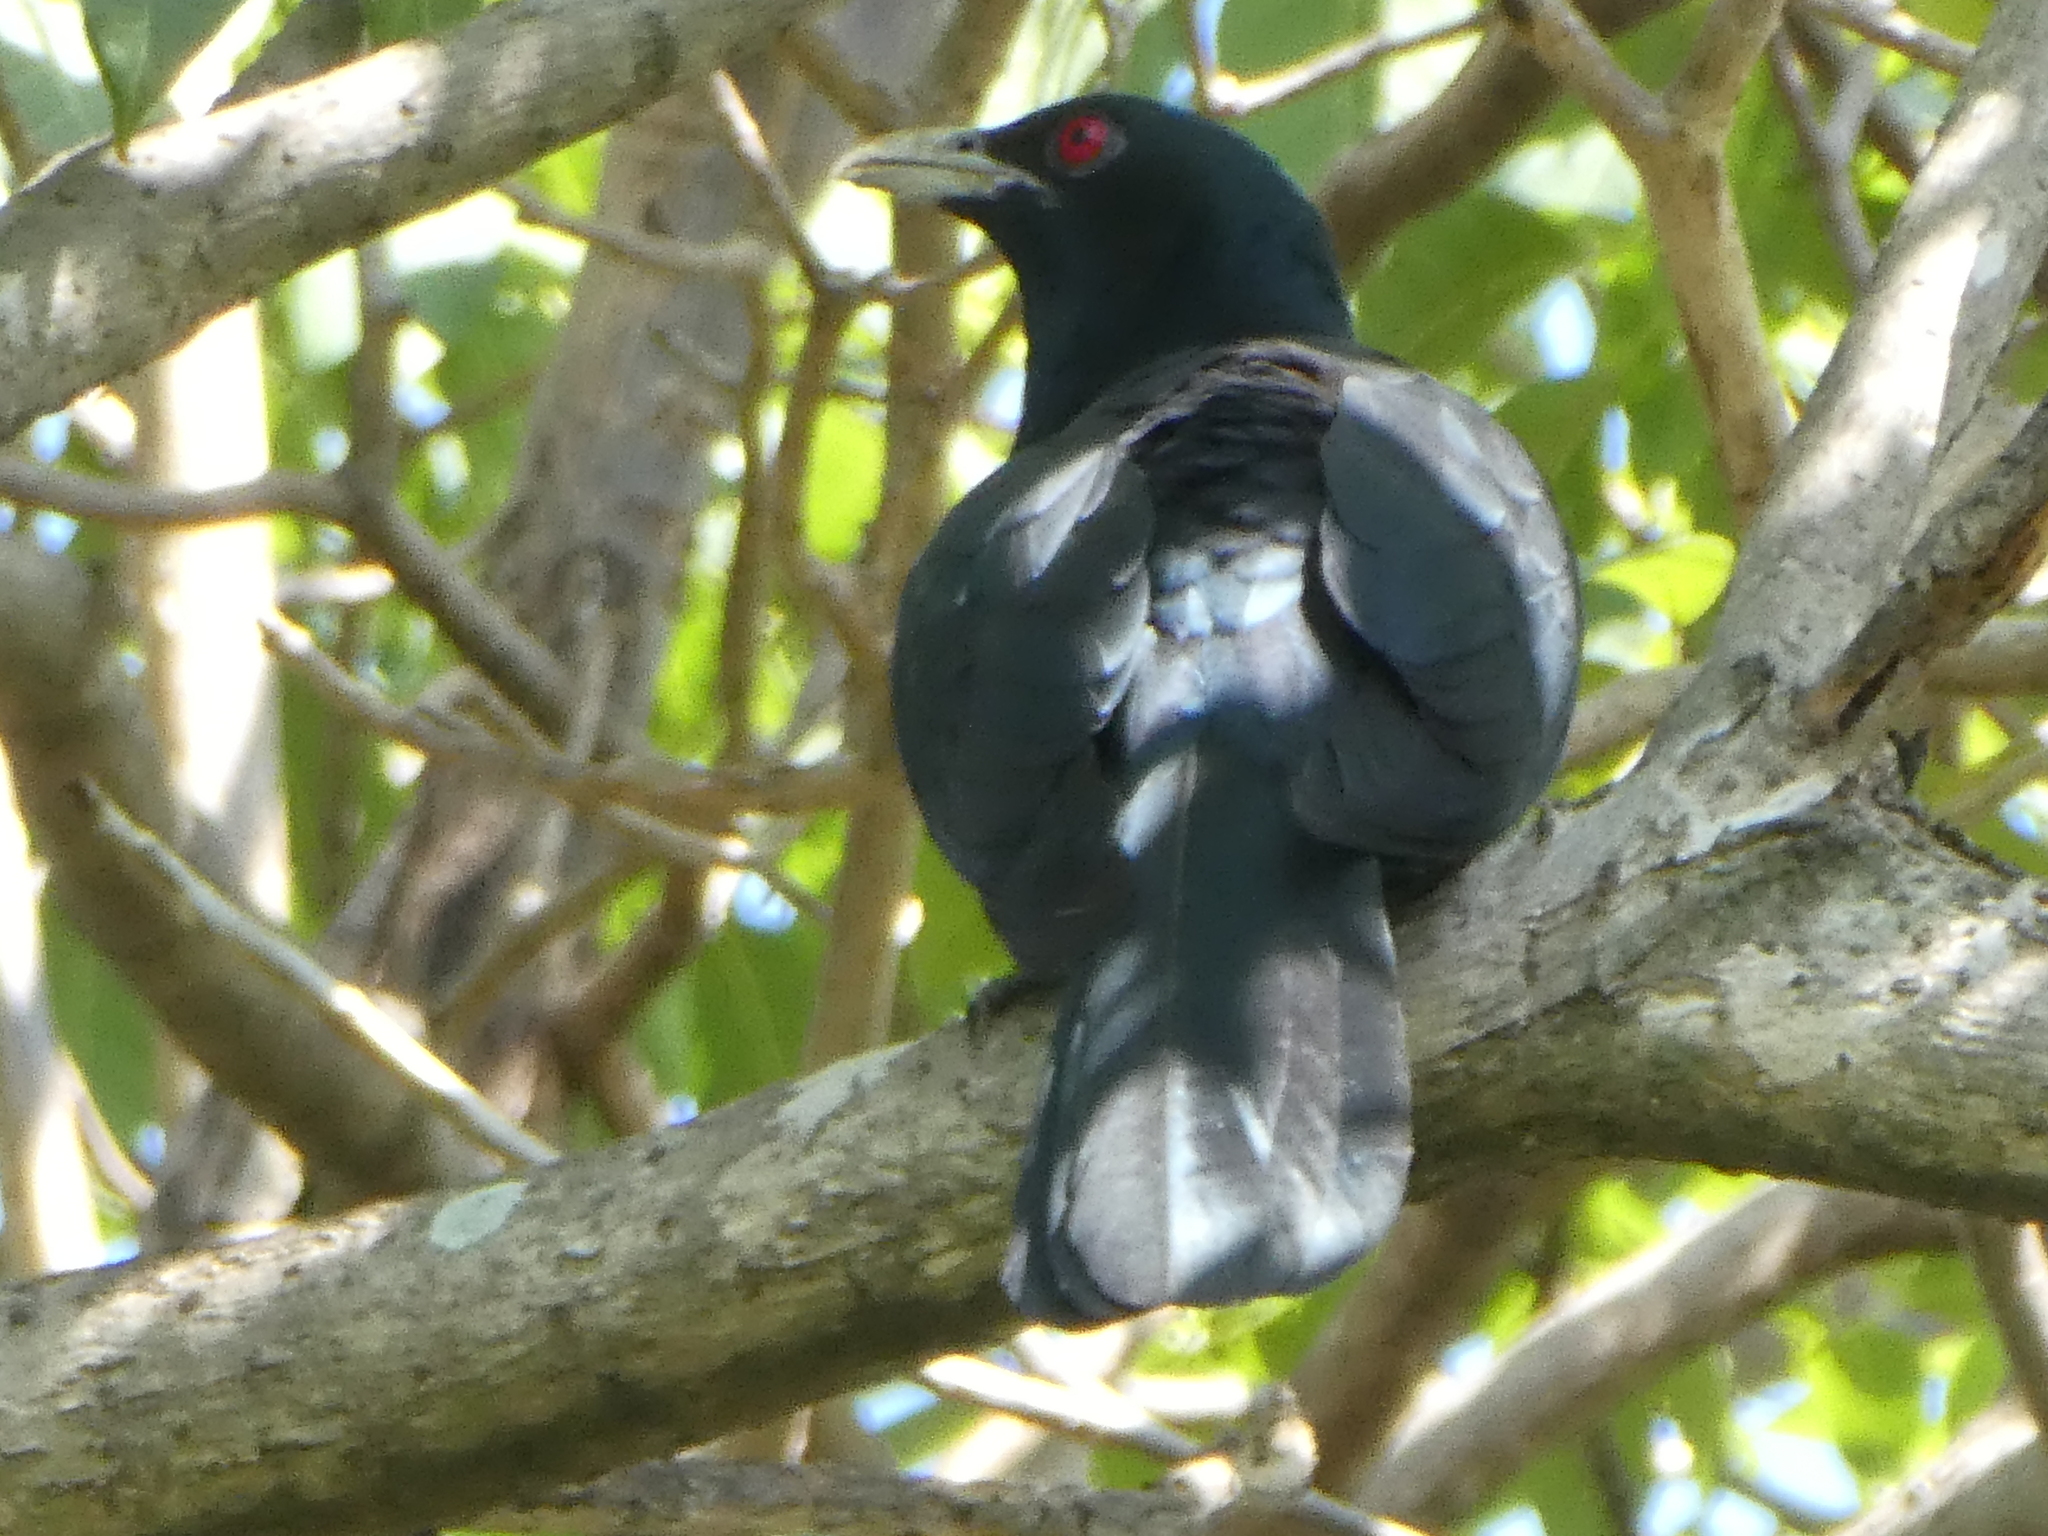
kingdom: Animalia
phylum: Chordata
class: Aves
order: Cuculiformes
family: Cuculidae
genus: Eudynamys
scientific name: Eudynamys scolopaceus
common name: Asian koel
